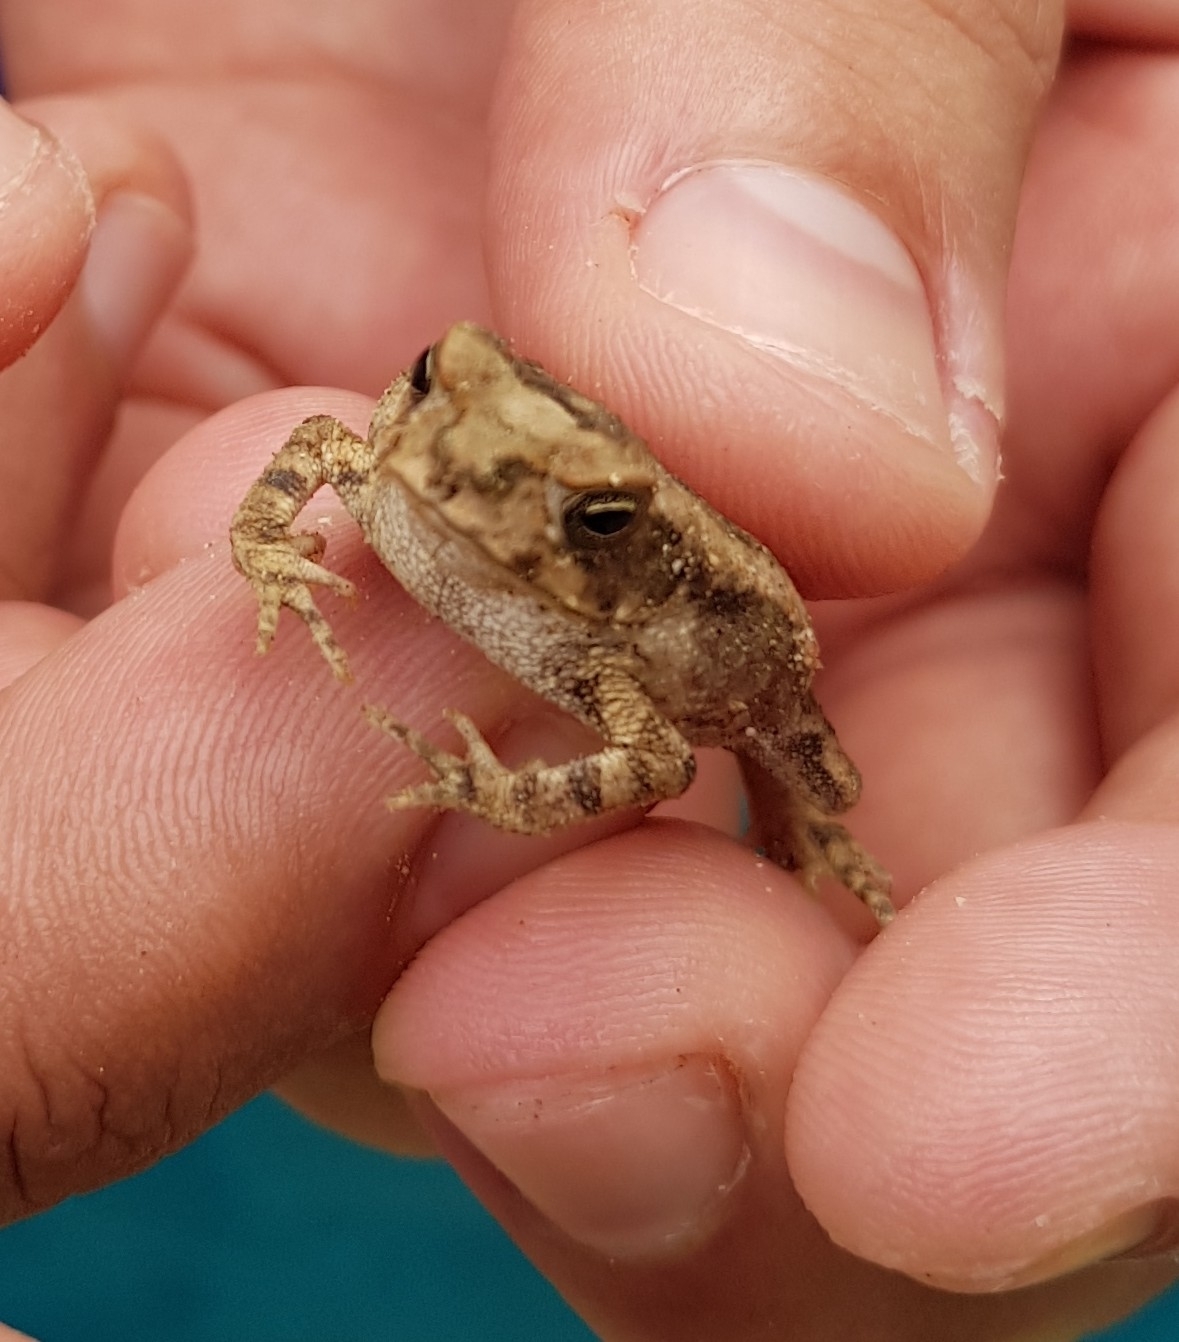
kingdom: Animalia
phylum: Chordata
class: Amphibia
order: Anura
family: Bufonidae
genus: Incilius
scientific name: Incilius marmoreus
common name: Marbled toad
